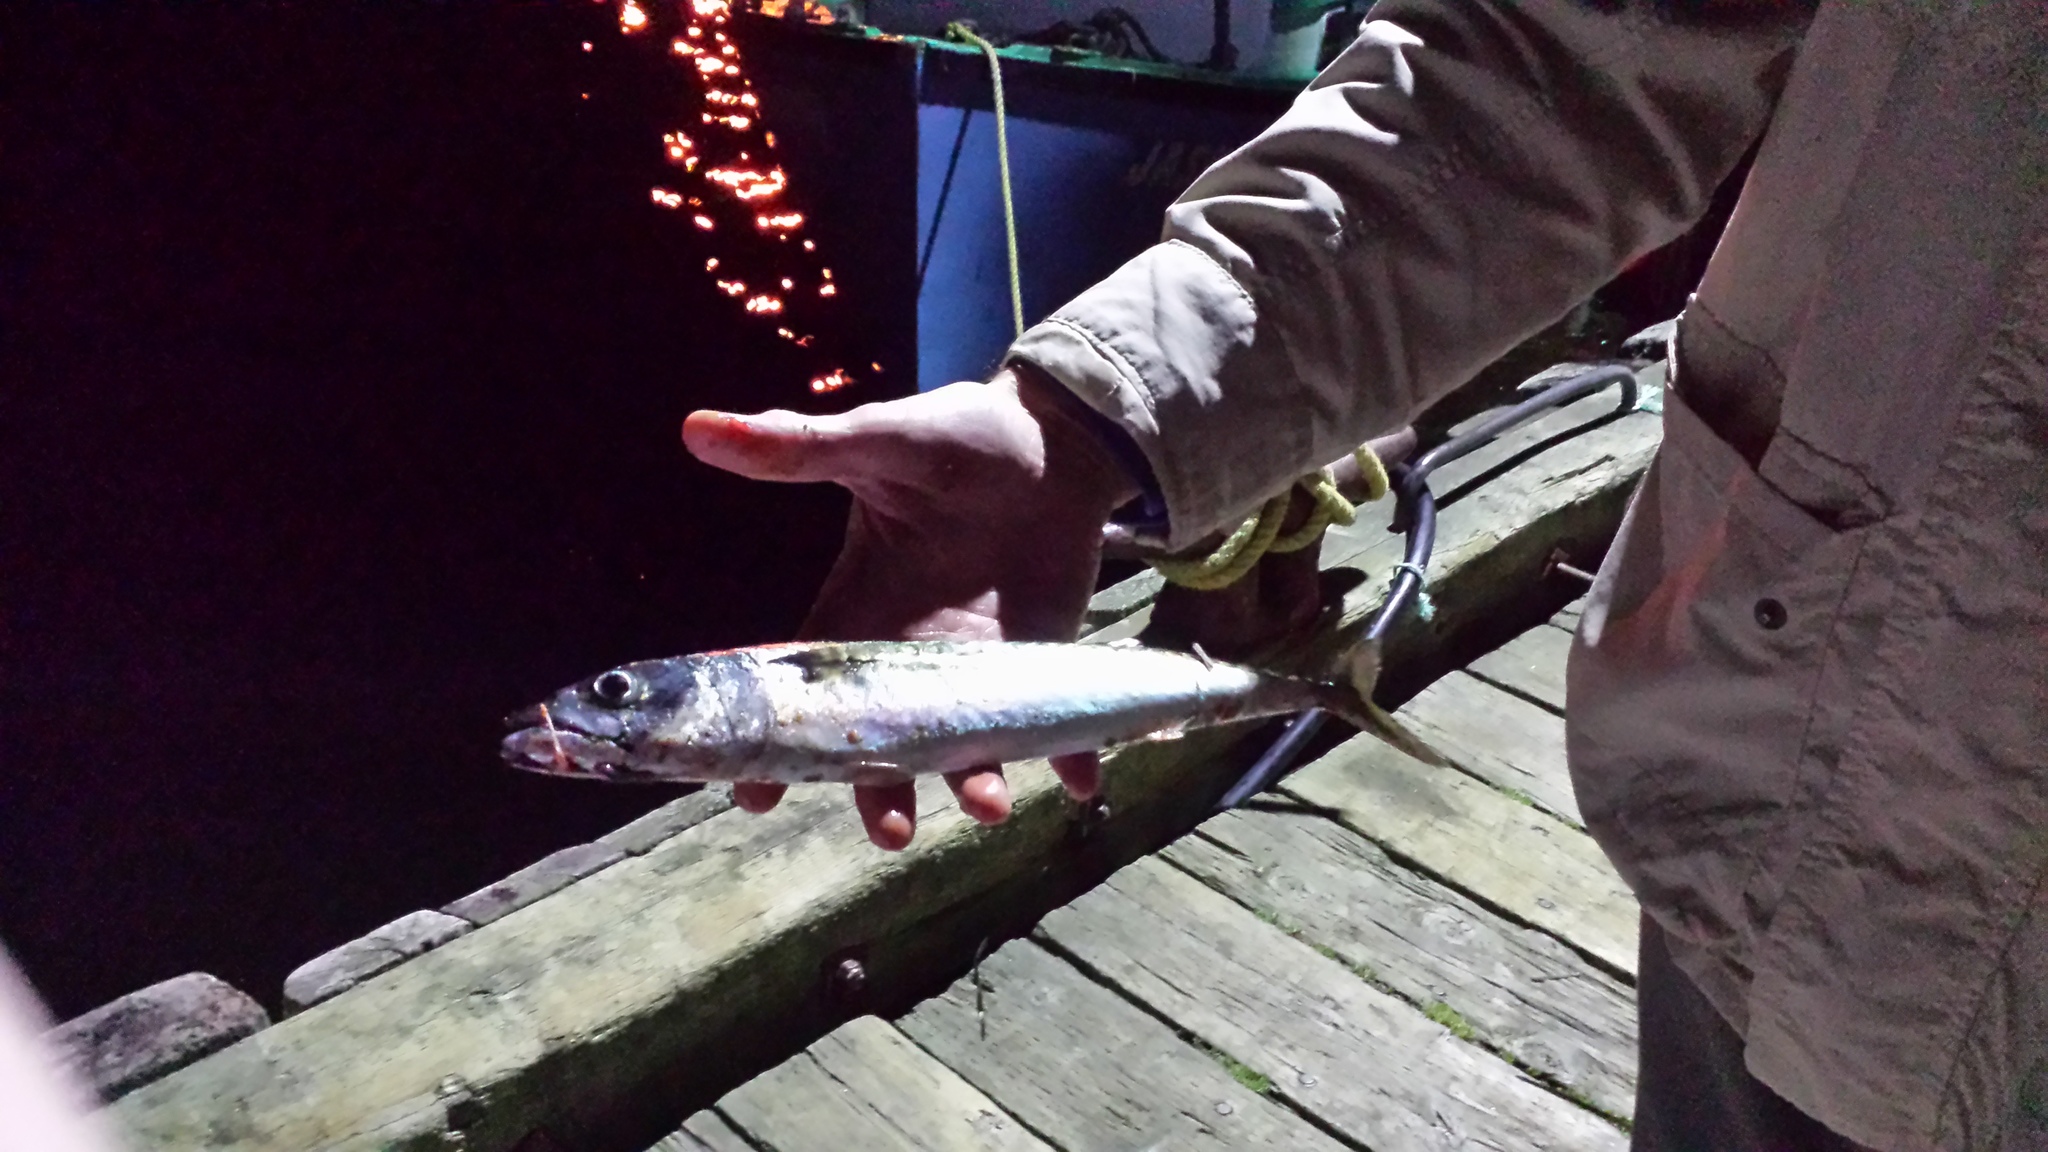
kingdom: Animalia
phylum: Chordata
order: Perciformes
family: Scombridae
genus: Scomber
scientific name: Scomber scombrus
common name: Mackerel
